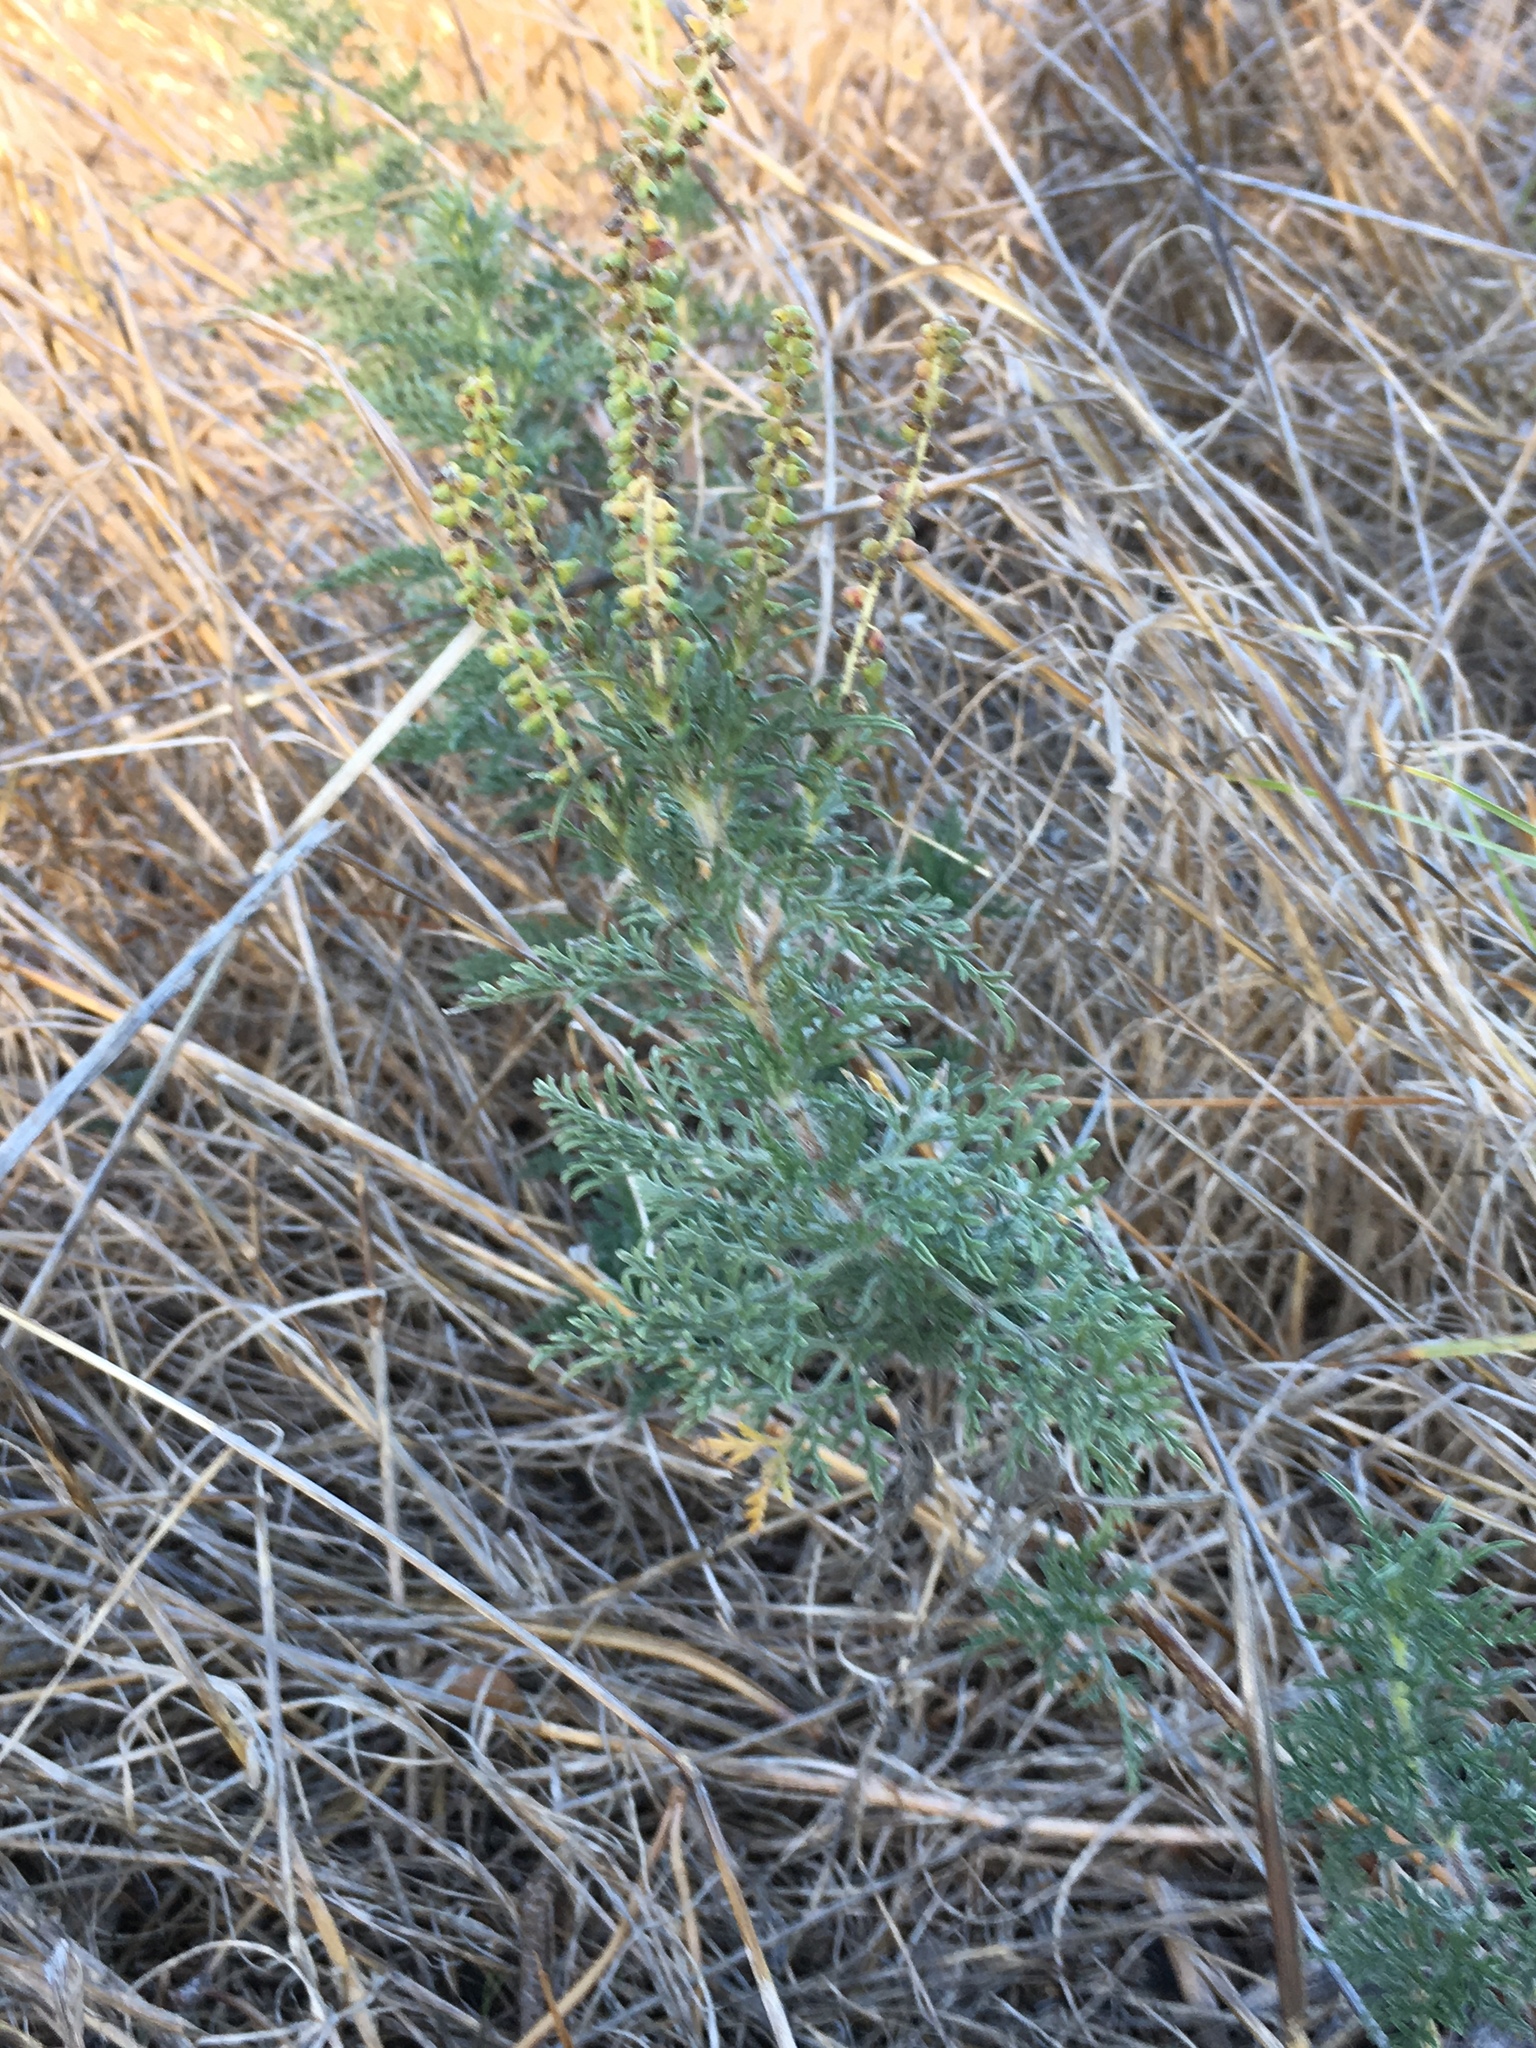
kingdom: Plantae
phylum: Tracheophyta
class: Magnoliopsida
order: Asterales
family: Asteraceae
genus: Ambrosia
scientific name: Ambrosia tenuifolia
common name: Lacy ambrosia
